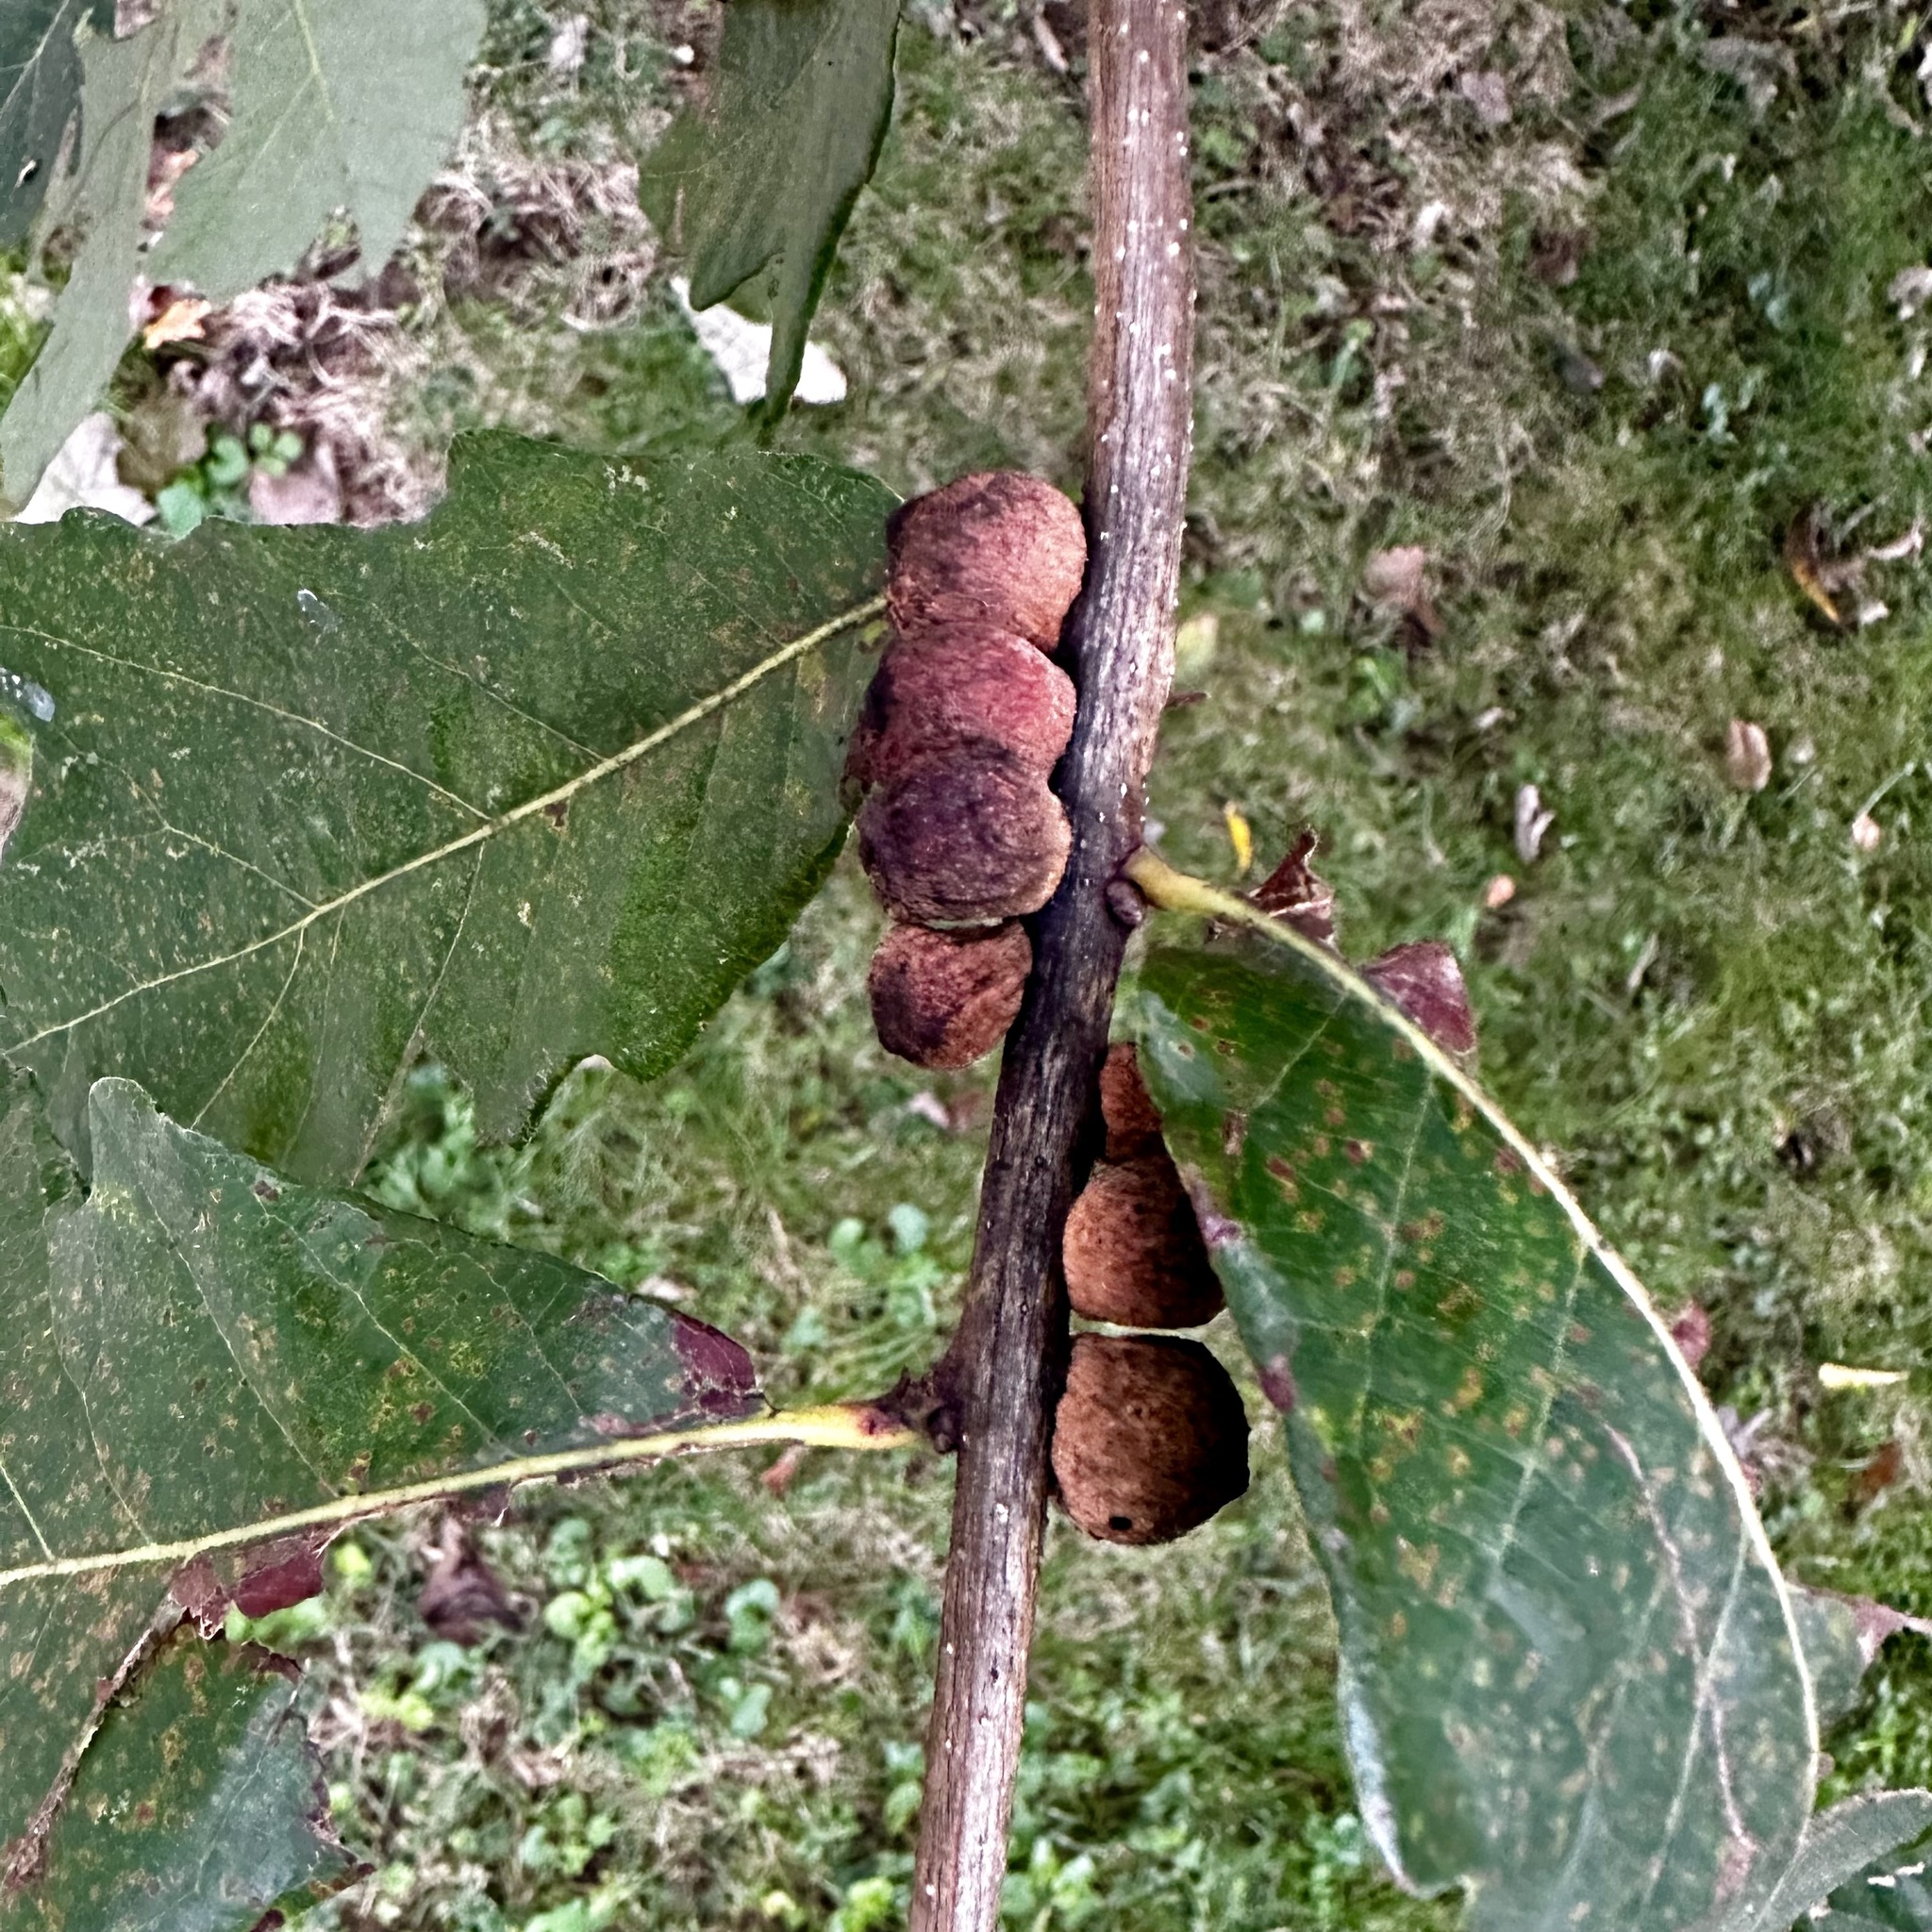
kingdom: Animalia
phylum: Arthropoda
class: Insecta
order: Hymenoptera
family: Cynipidae
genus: Disholcaspis
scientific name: Disholcaspis
